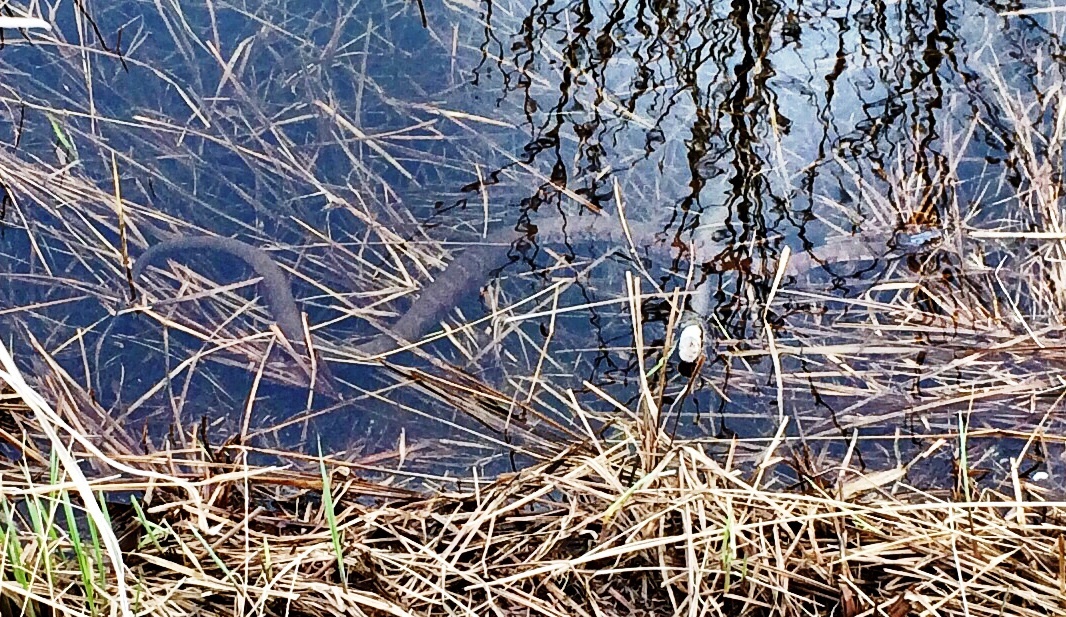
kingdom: Animalia
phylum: Chordata
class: Squamata
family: Colubridae
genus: Nerodia
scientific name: Nerodia sipedon
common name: Northern water snake
